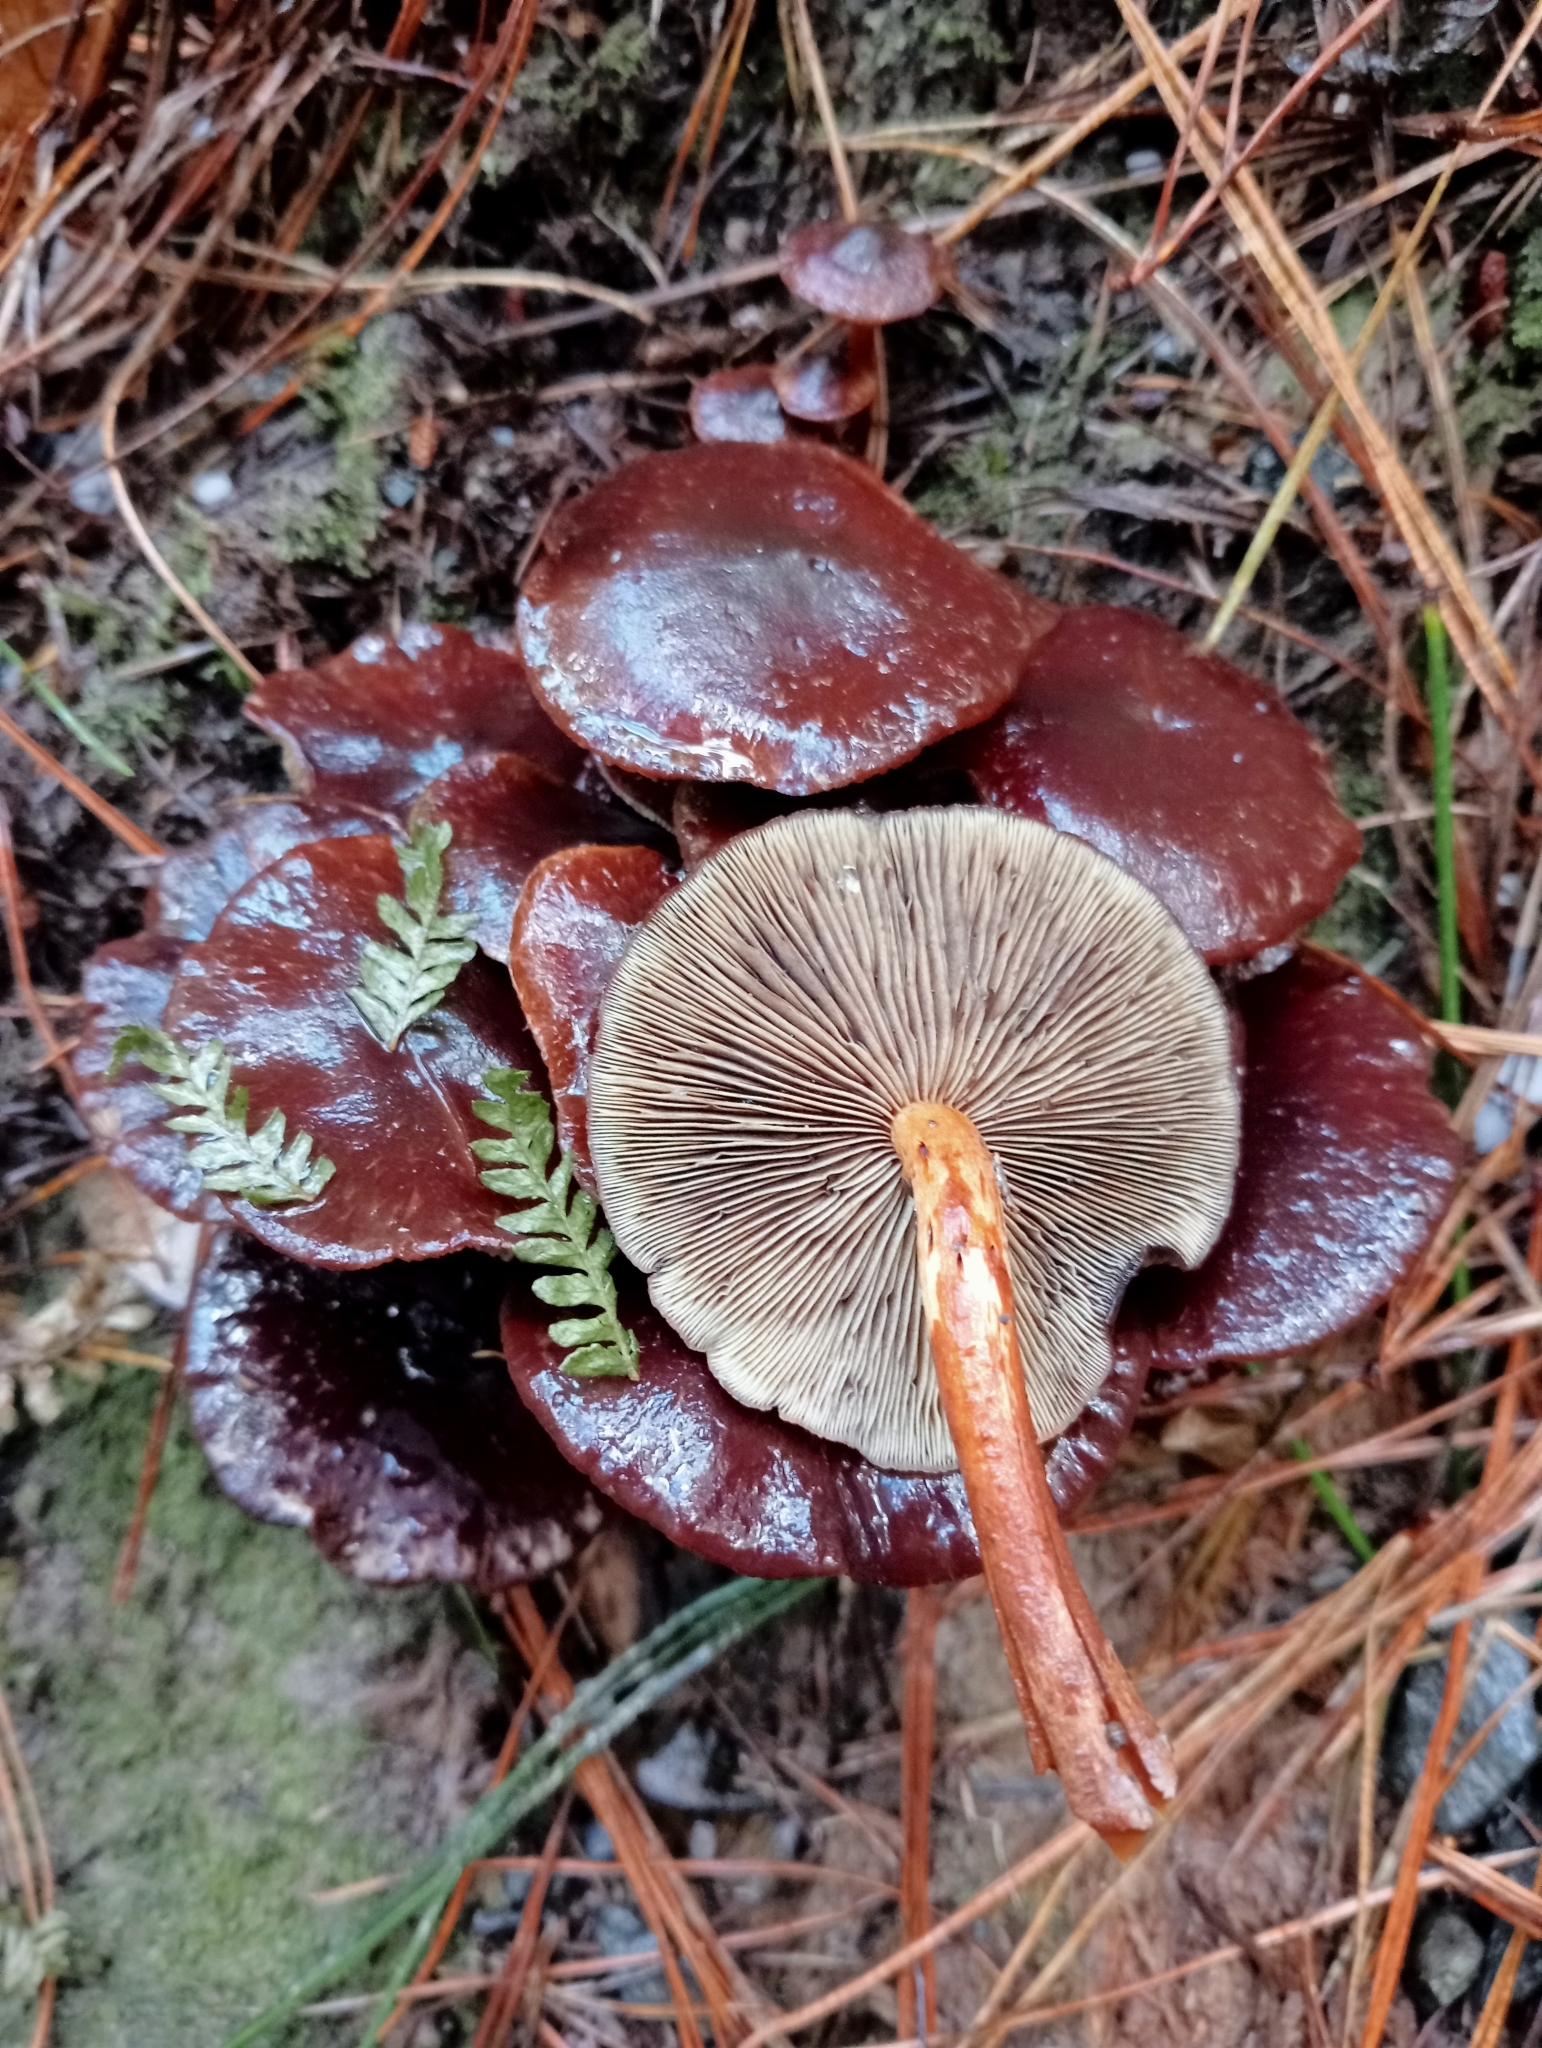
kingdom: Fungi
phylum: Basidiomycota
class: Agaricomycetes
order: Agaricales
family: Strophariaceae
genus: Hypholoma
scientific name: Hypholoma brunneum
